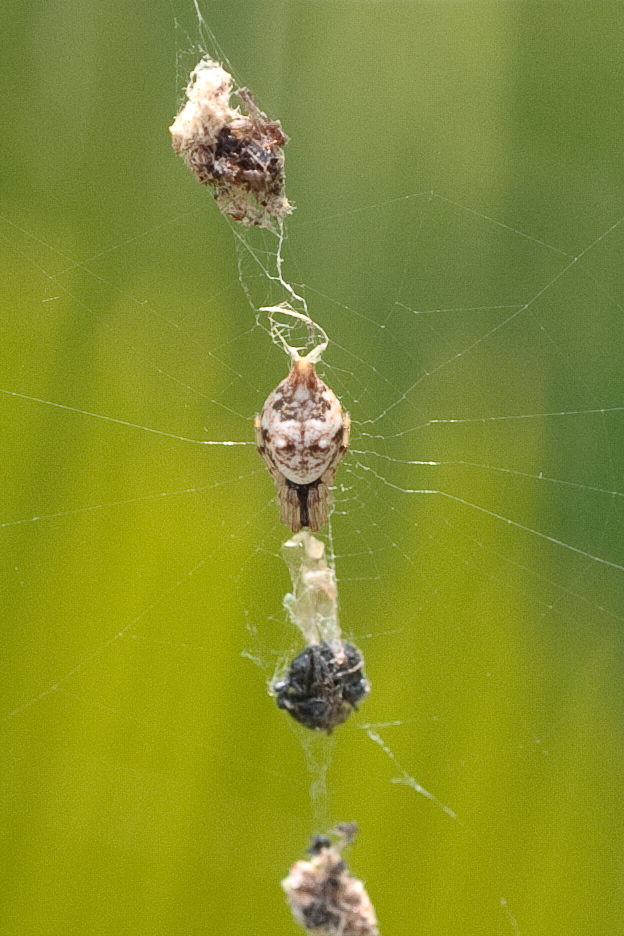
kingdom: Animalia
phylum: Arthropoda
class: Arachnida
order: Araneae
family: Araneidae
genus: Cyclosa
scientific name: Cyclosa turbinata
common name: Orb weavers
